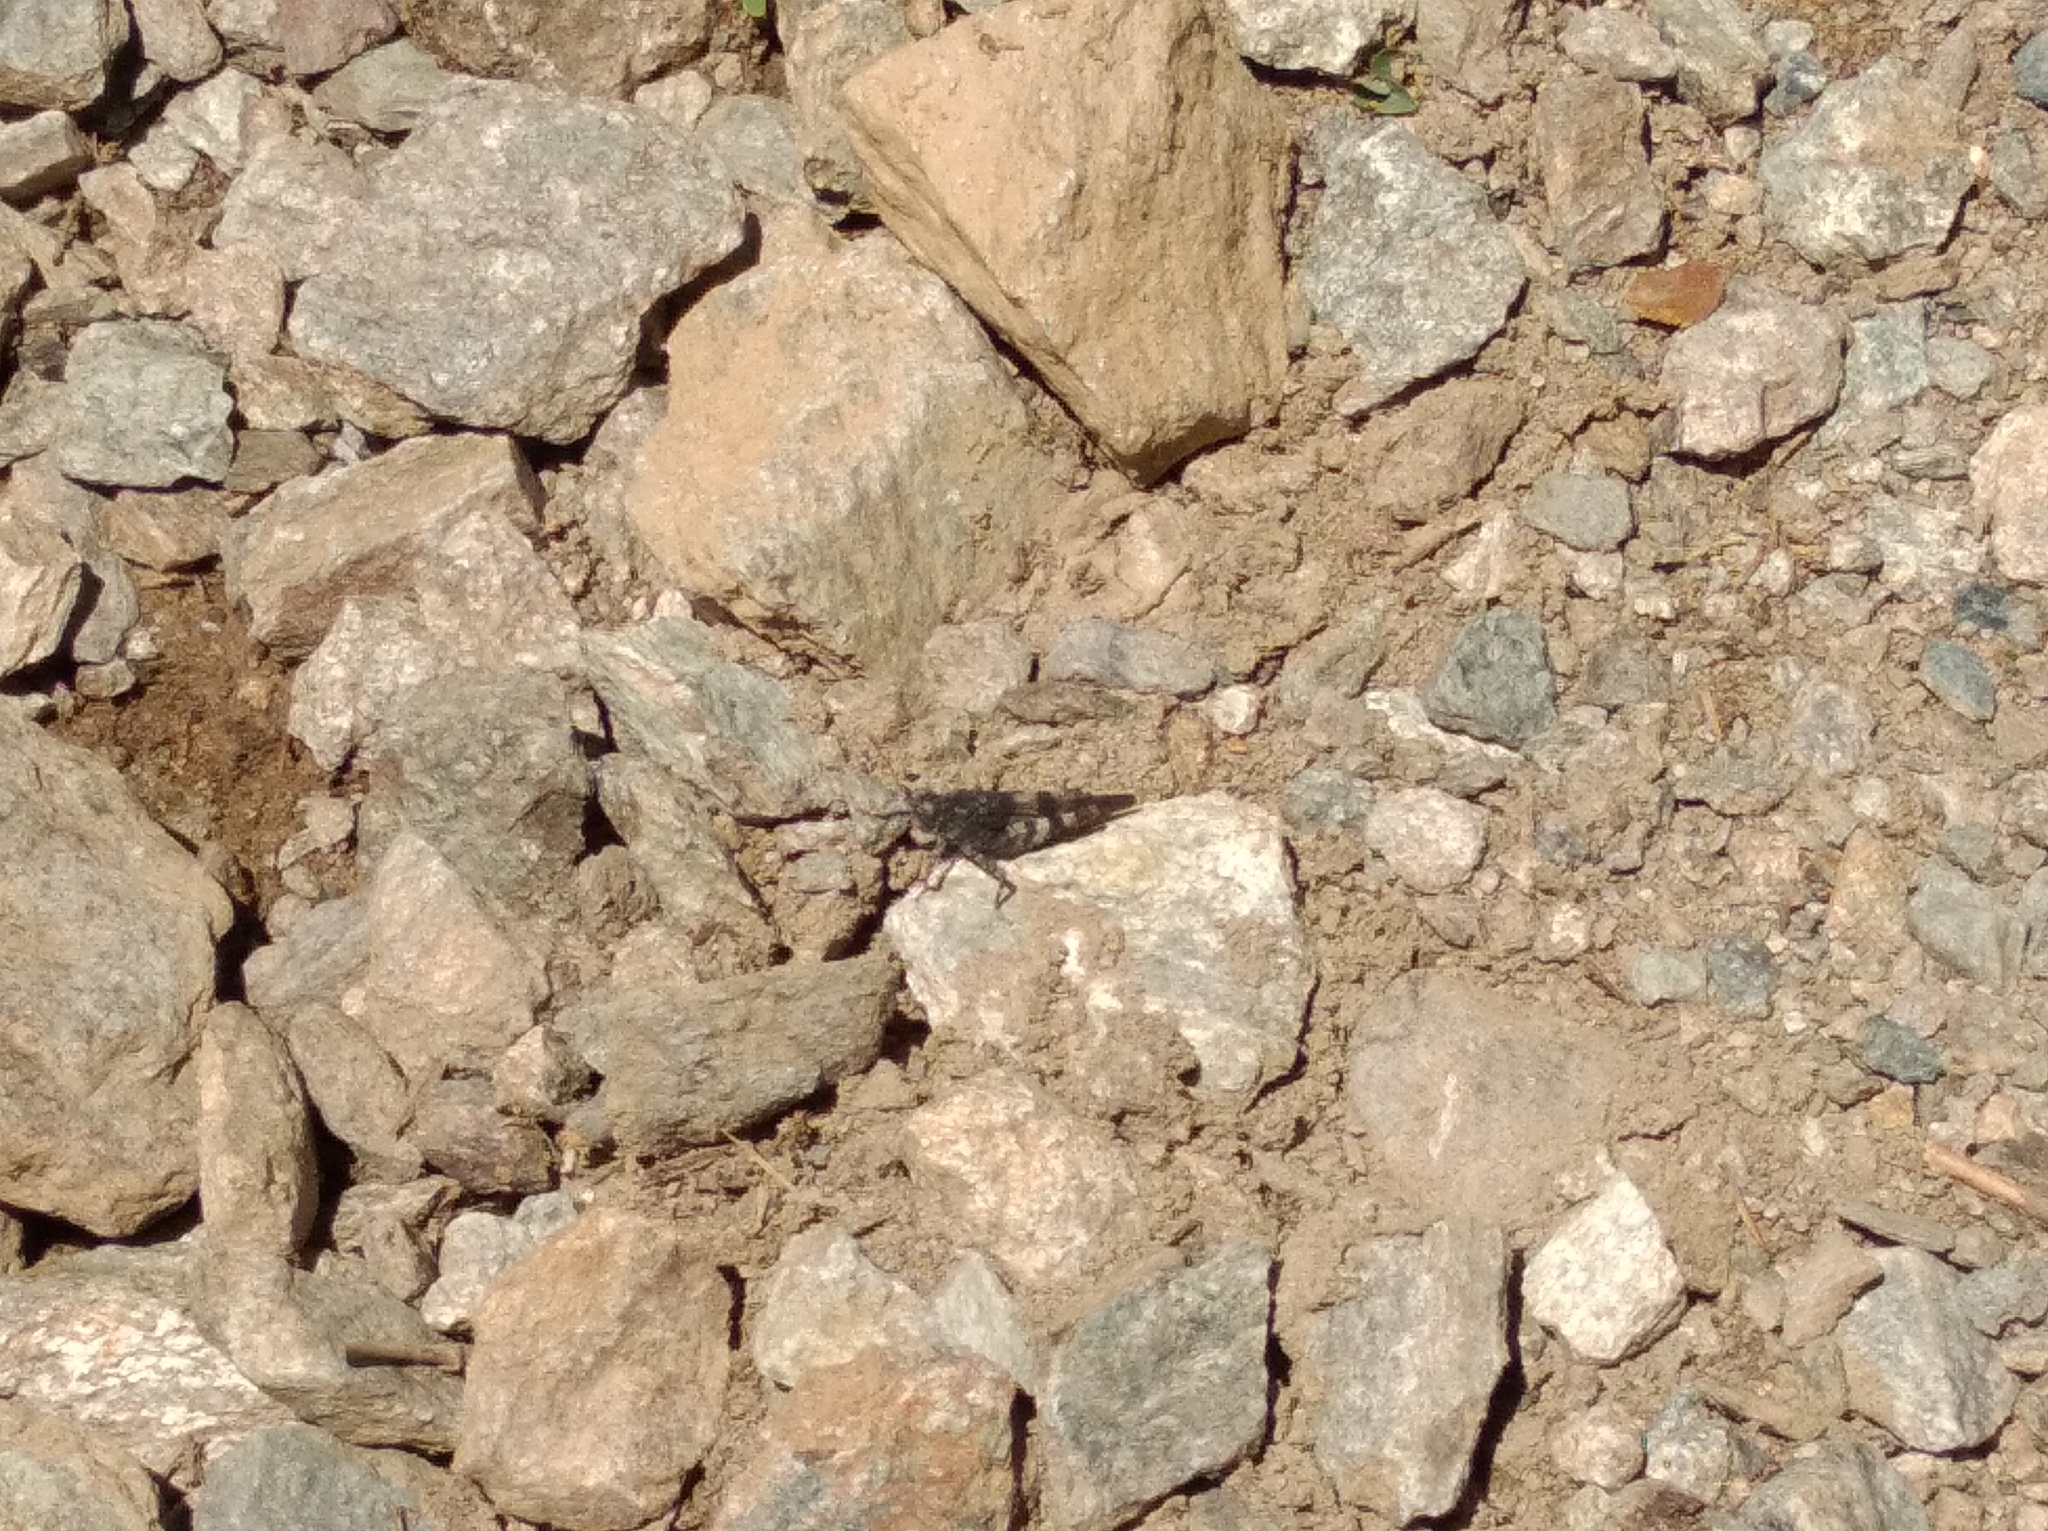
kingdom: Animalia
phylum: Arthropoda
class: Insecta
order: Orthoptera
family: Acrididae
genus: Oedipoda
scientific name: Oedipoda germanica
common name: Red band-winged grasshopper
